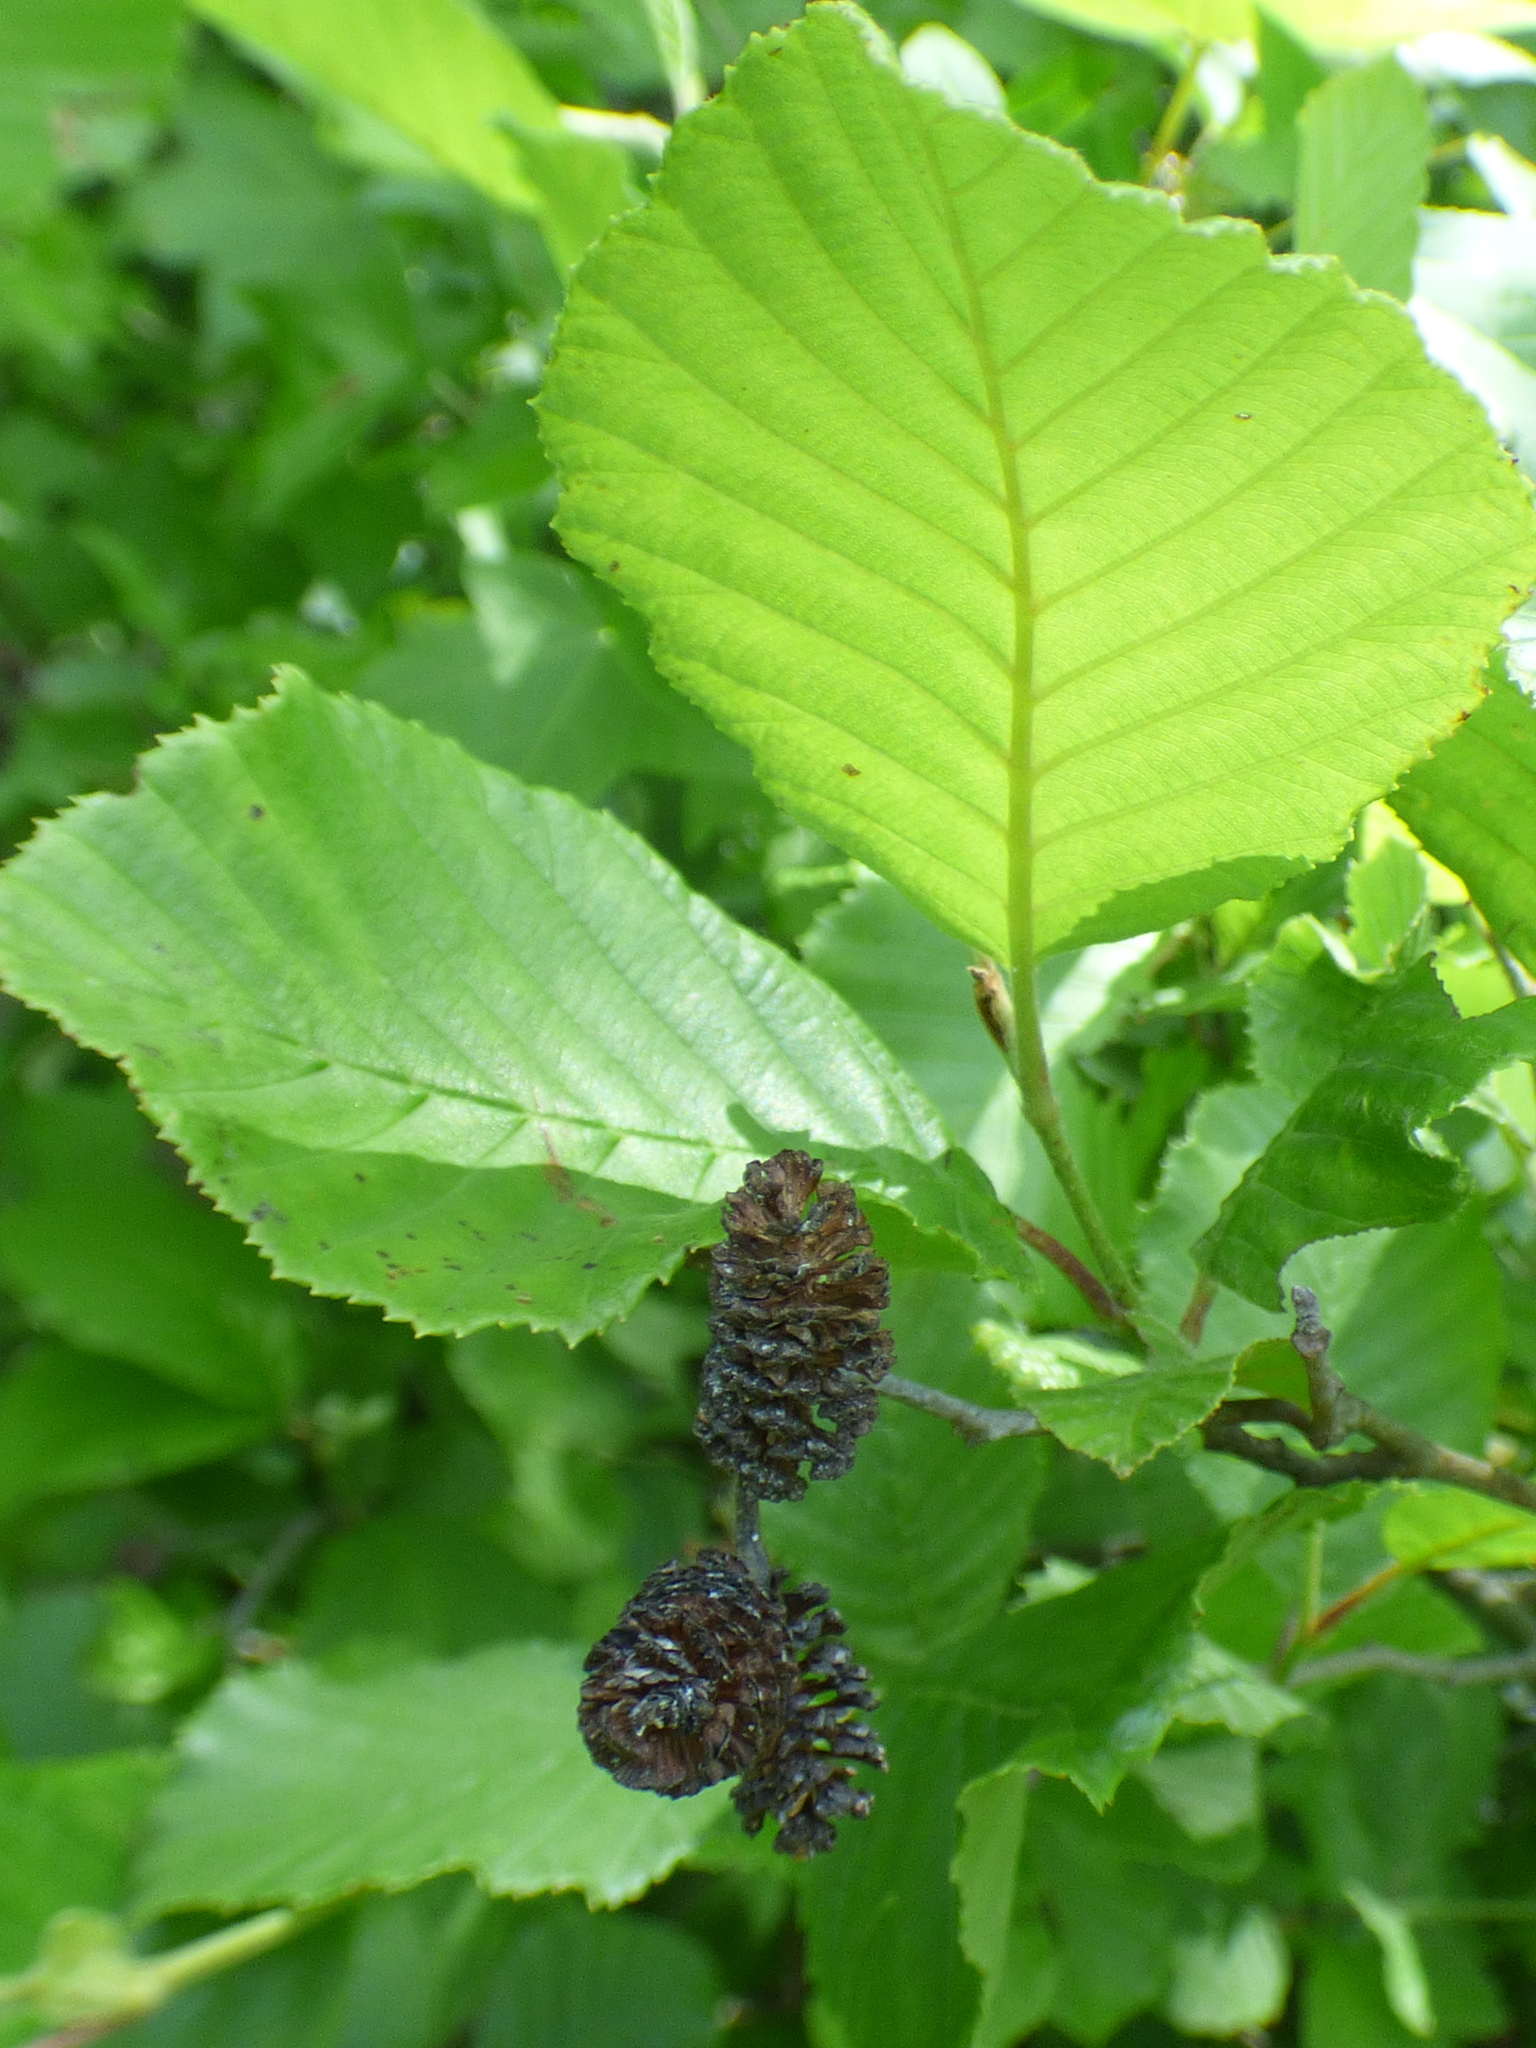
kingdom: Plantae
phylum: Tracheophyta
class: Magnoliopsida
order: Fagales
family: Betulaceae
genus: Alnus
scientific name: Alnus serrulata
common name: Hazel alder
